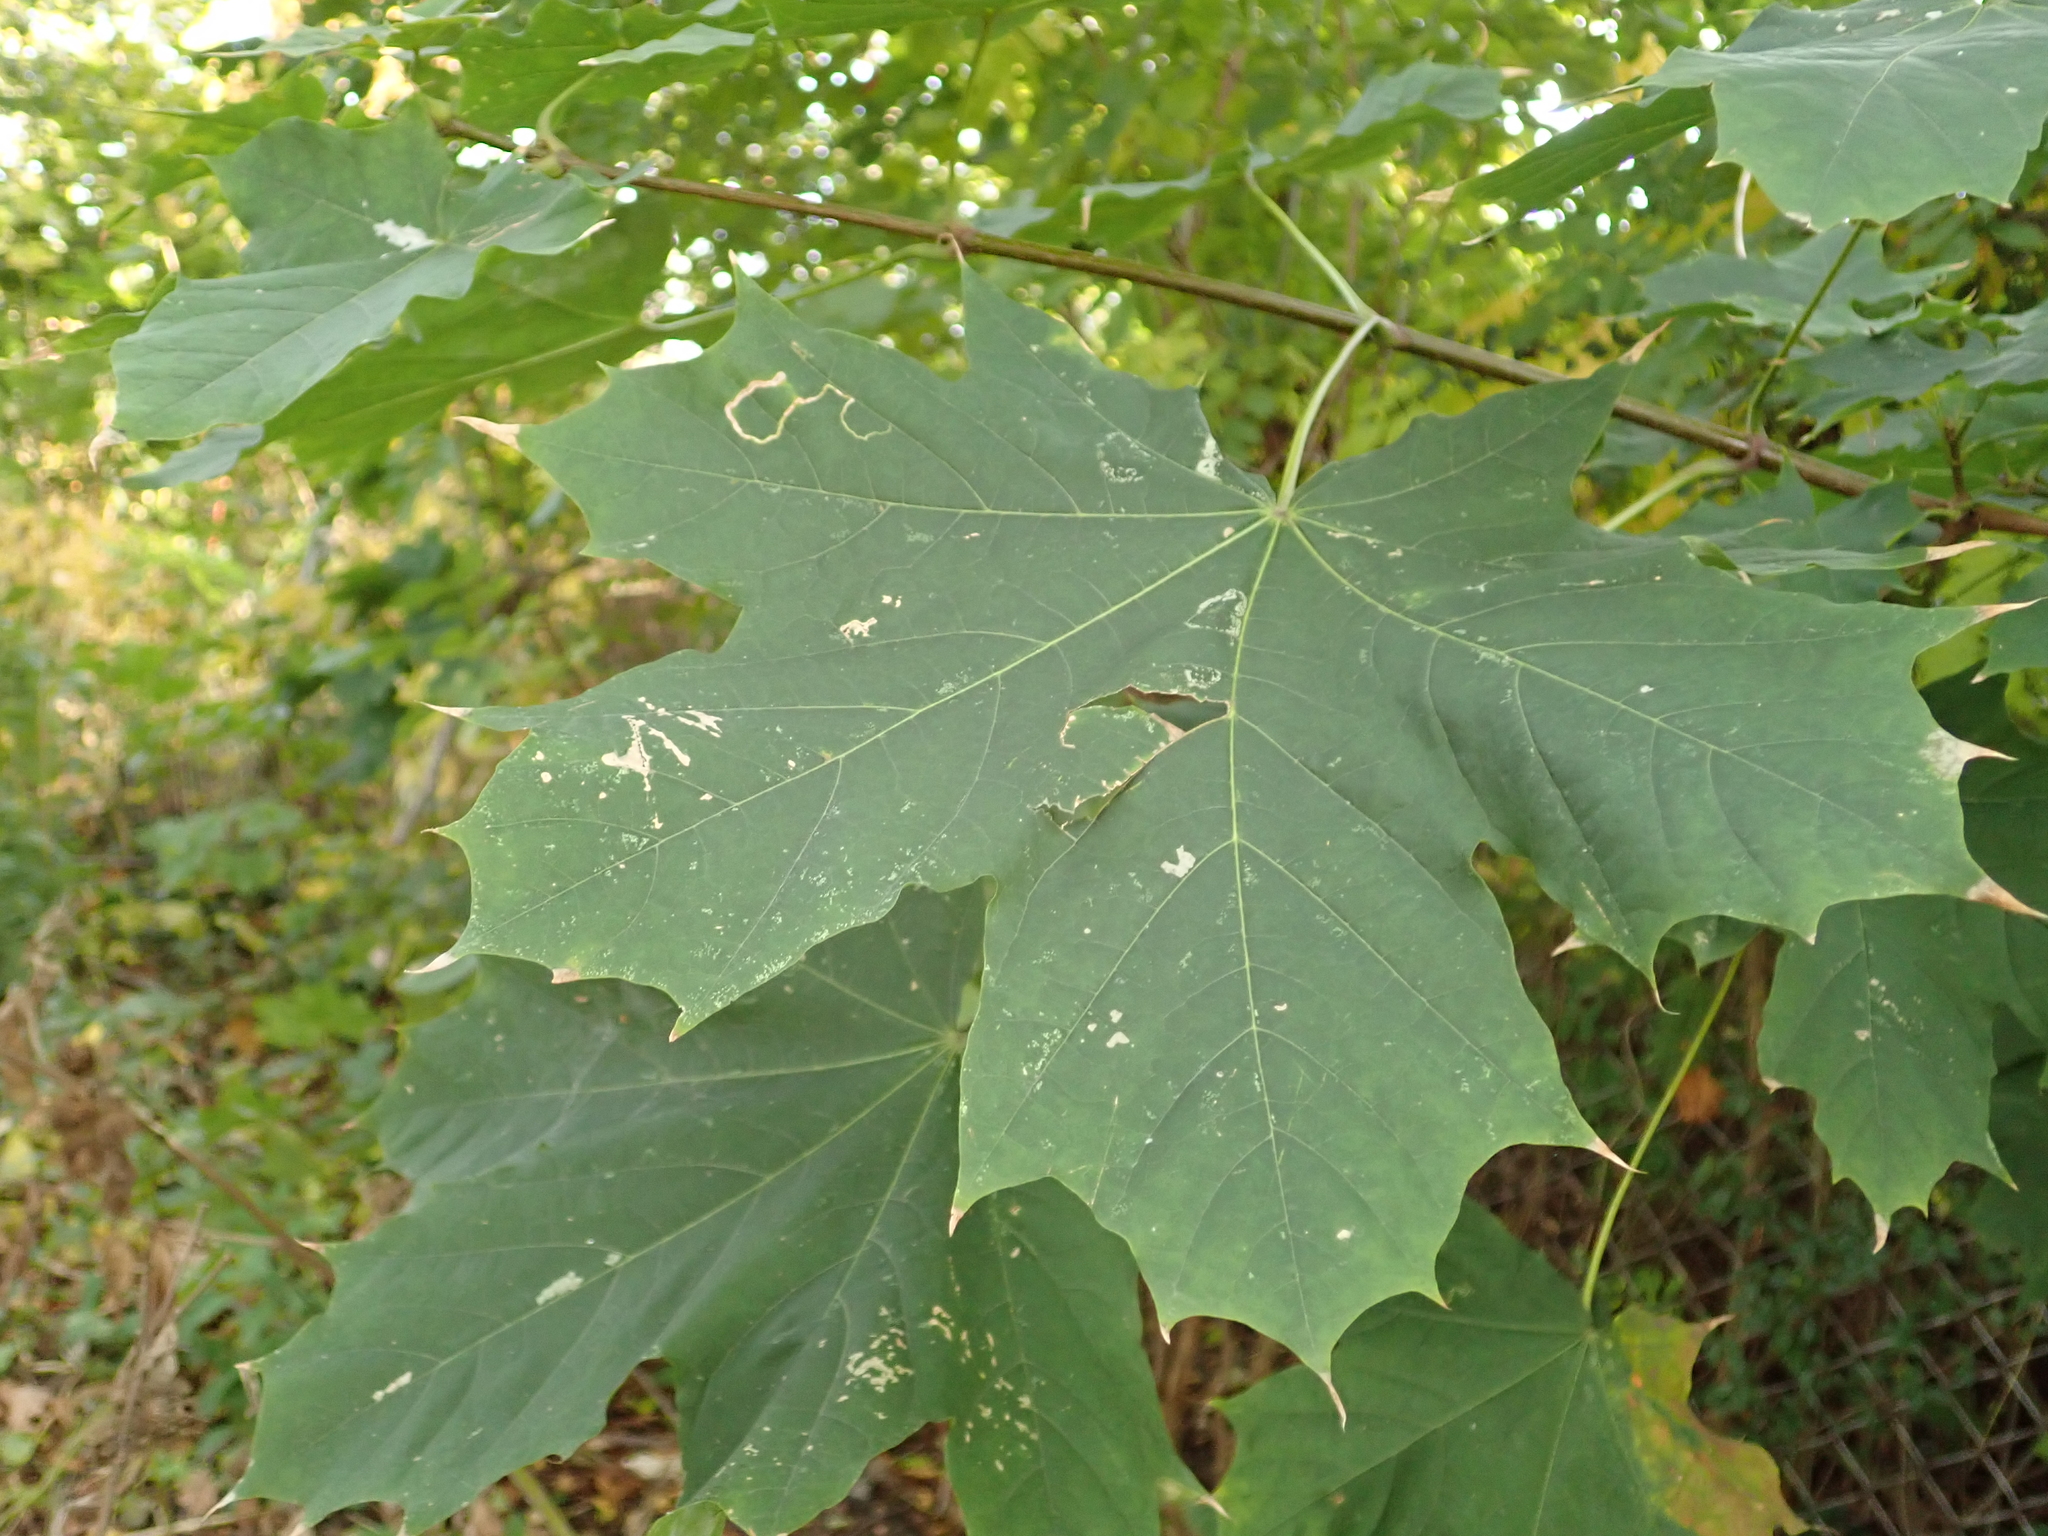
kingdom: Plantae
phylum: Tracheophyta
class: Magnoliopsida
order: Sapindales
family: Sapindaceae
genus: Acer
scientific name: Acer platanoides
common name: Norway maple
